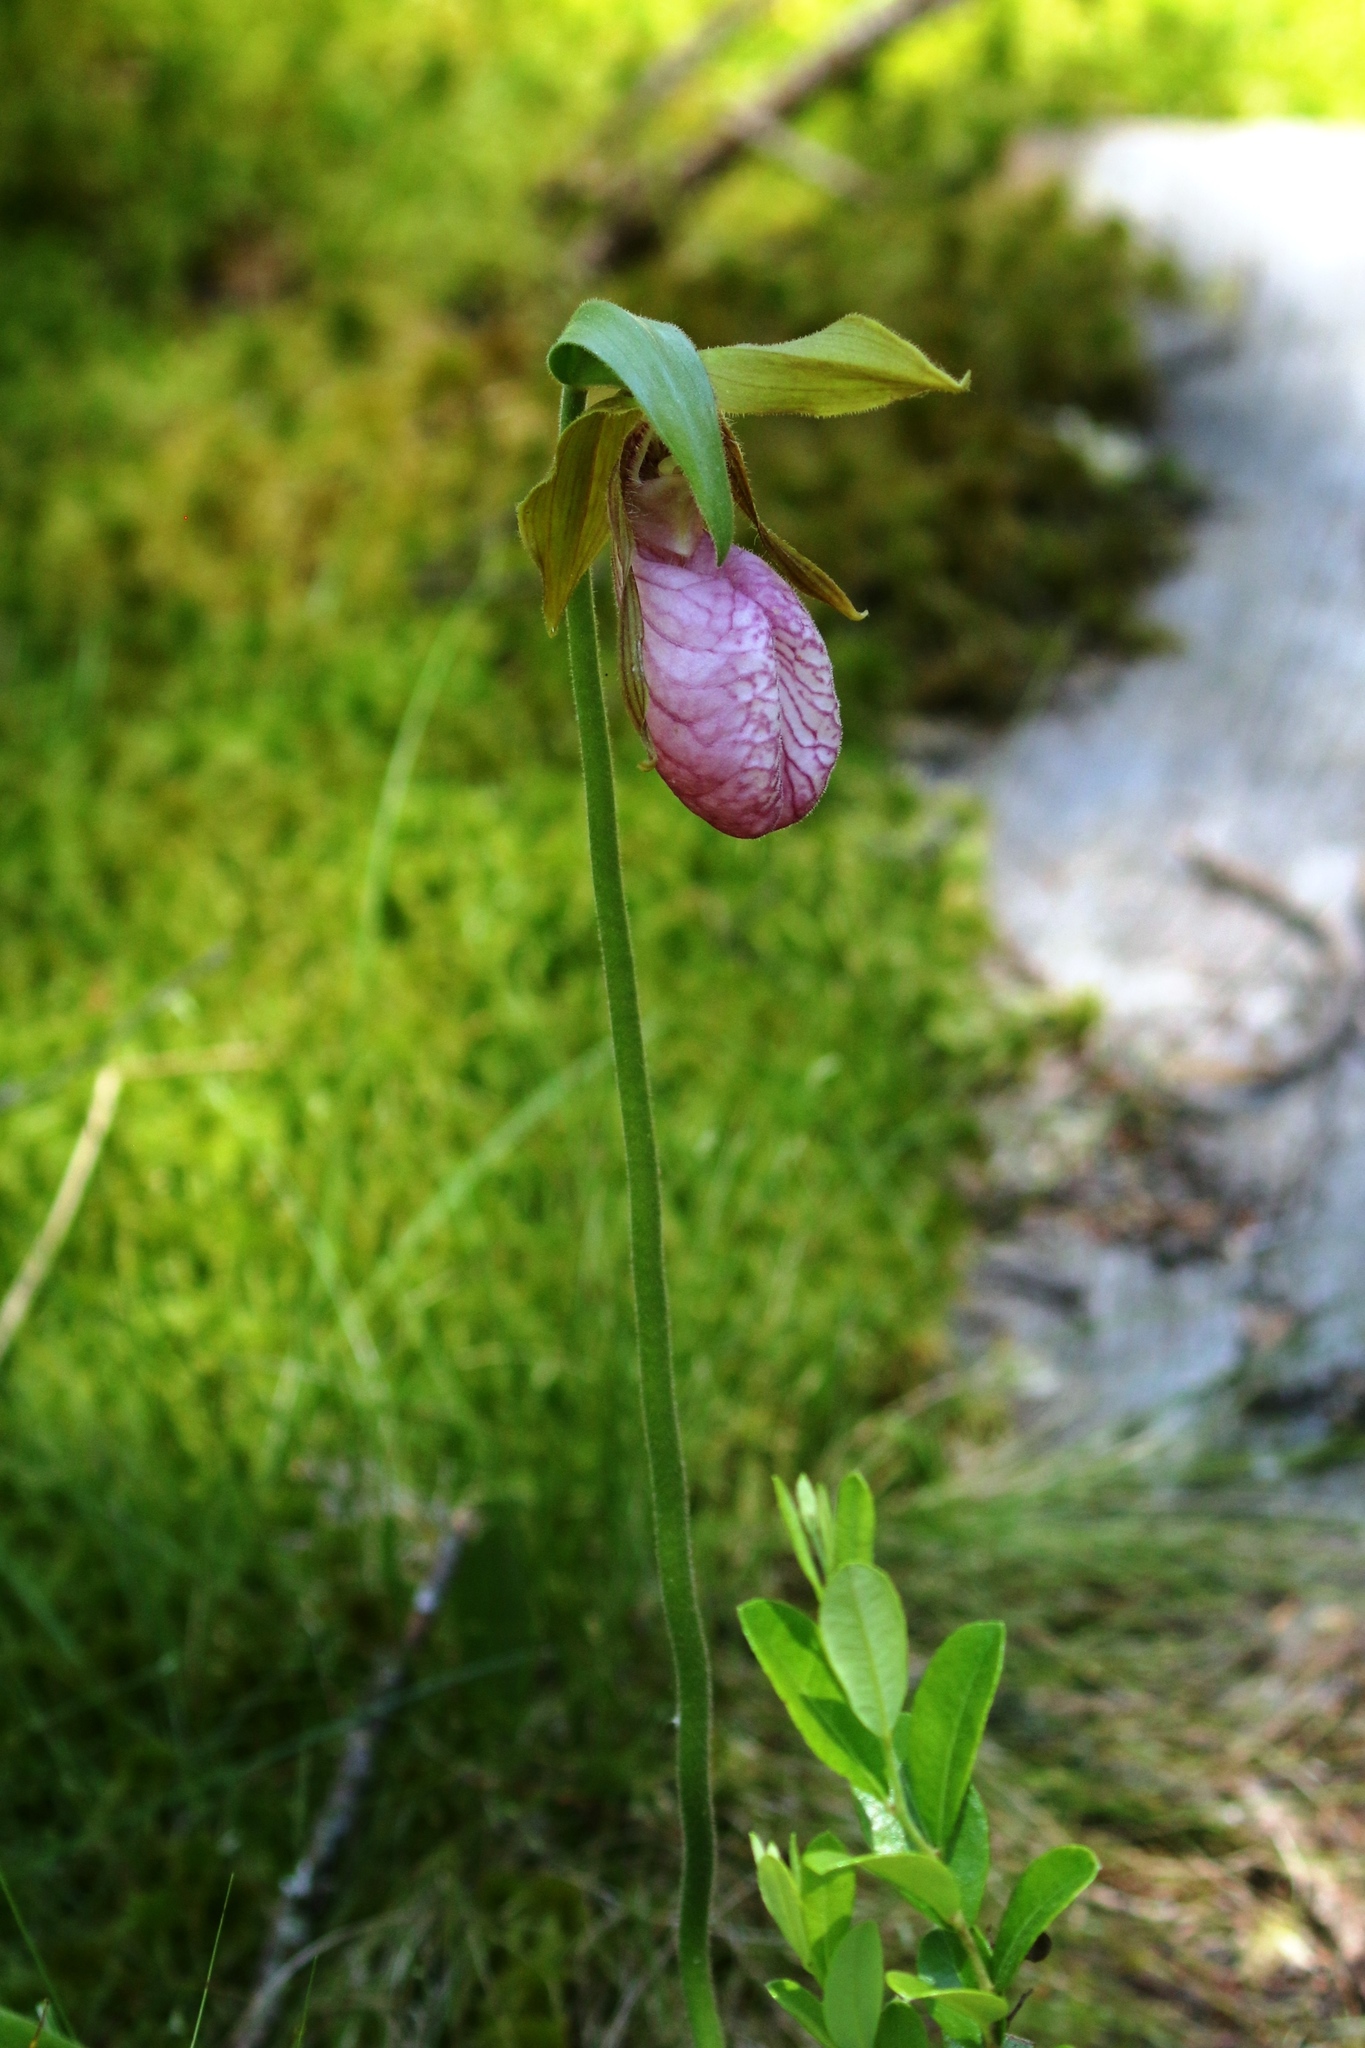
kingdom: Plantae
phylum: Tracheophyta
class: Liliopsida
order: Asparagales
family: Orchidaceae
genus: Cypripedium
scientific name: Cypripedium acaule
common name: Pink lady's-slipper
